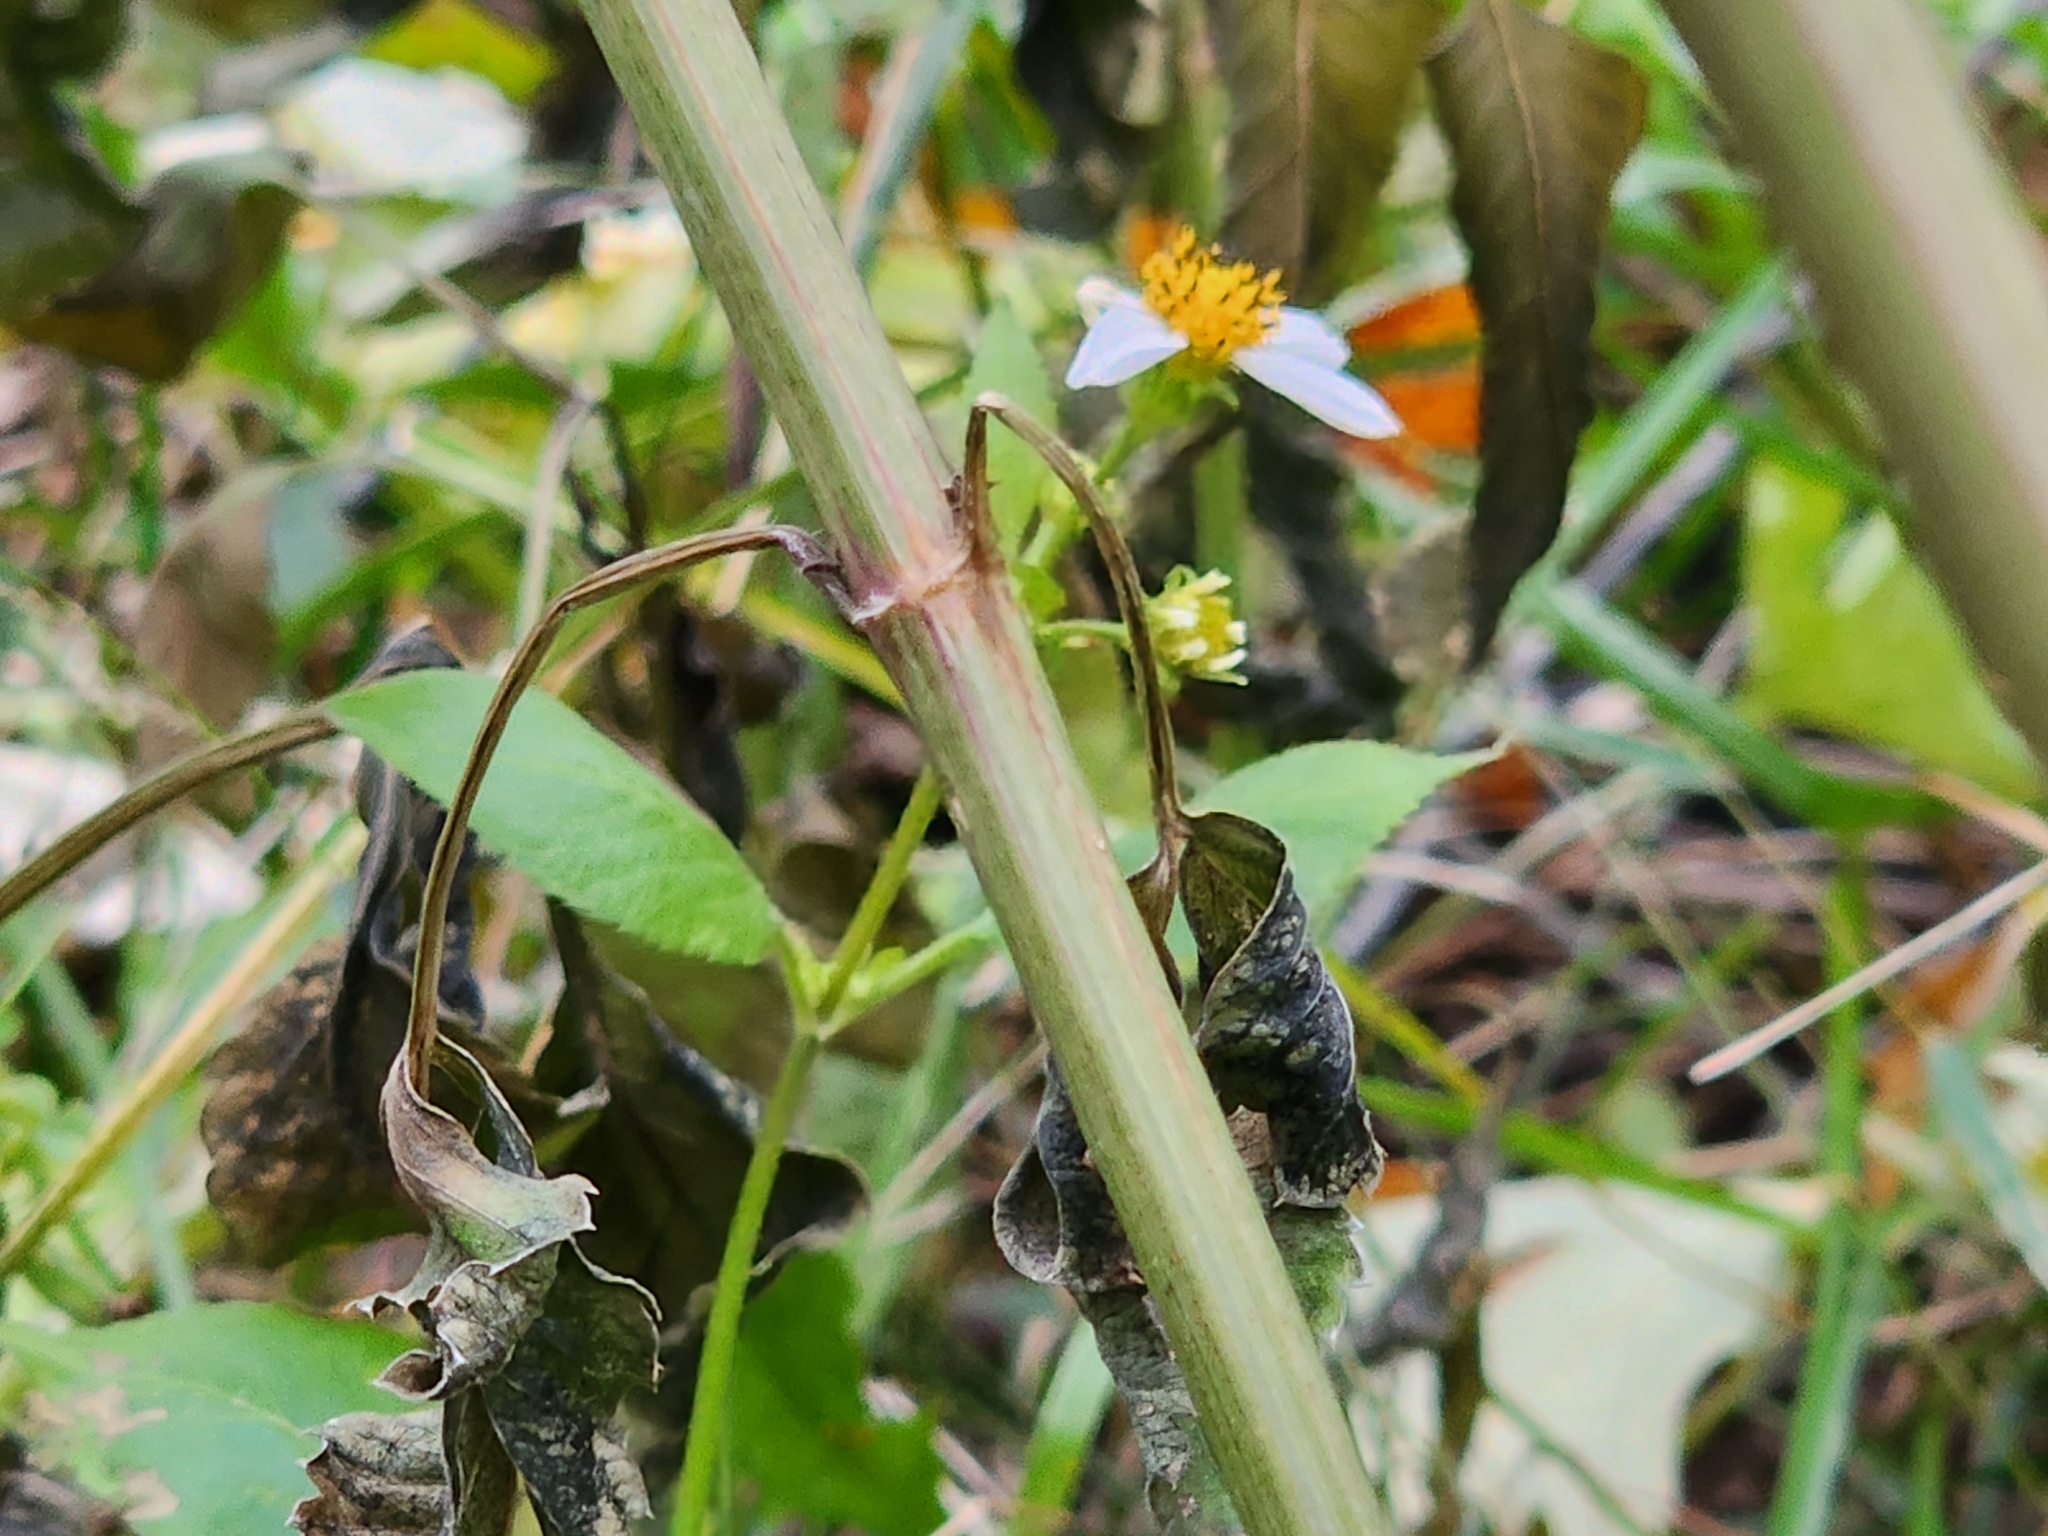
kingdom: Plantae
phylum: Tracheophyta
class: Magnoliopsida
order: Asterales
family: Asteraceae
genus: Bidens
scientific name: Bidens alba
